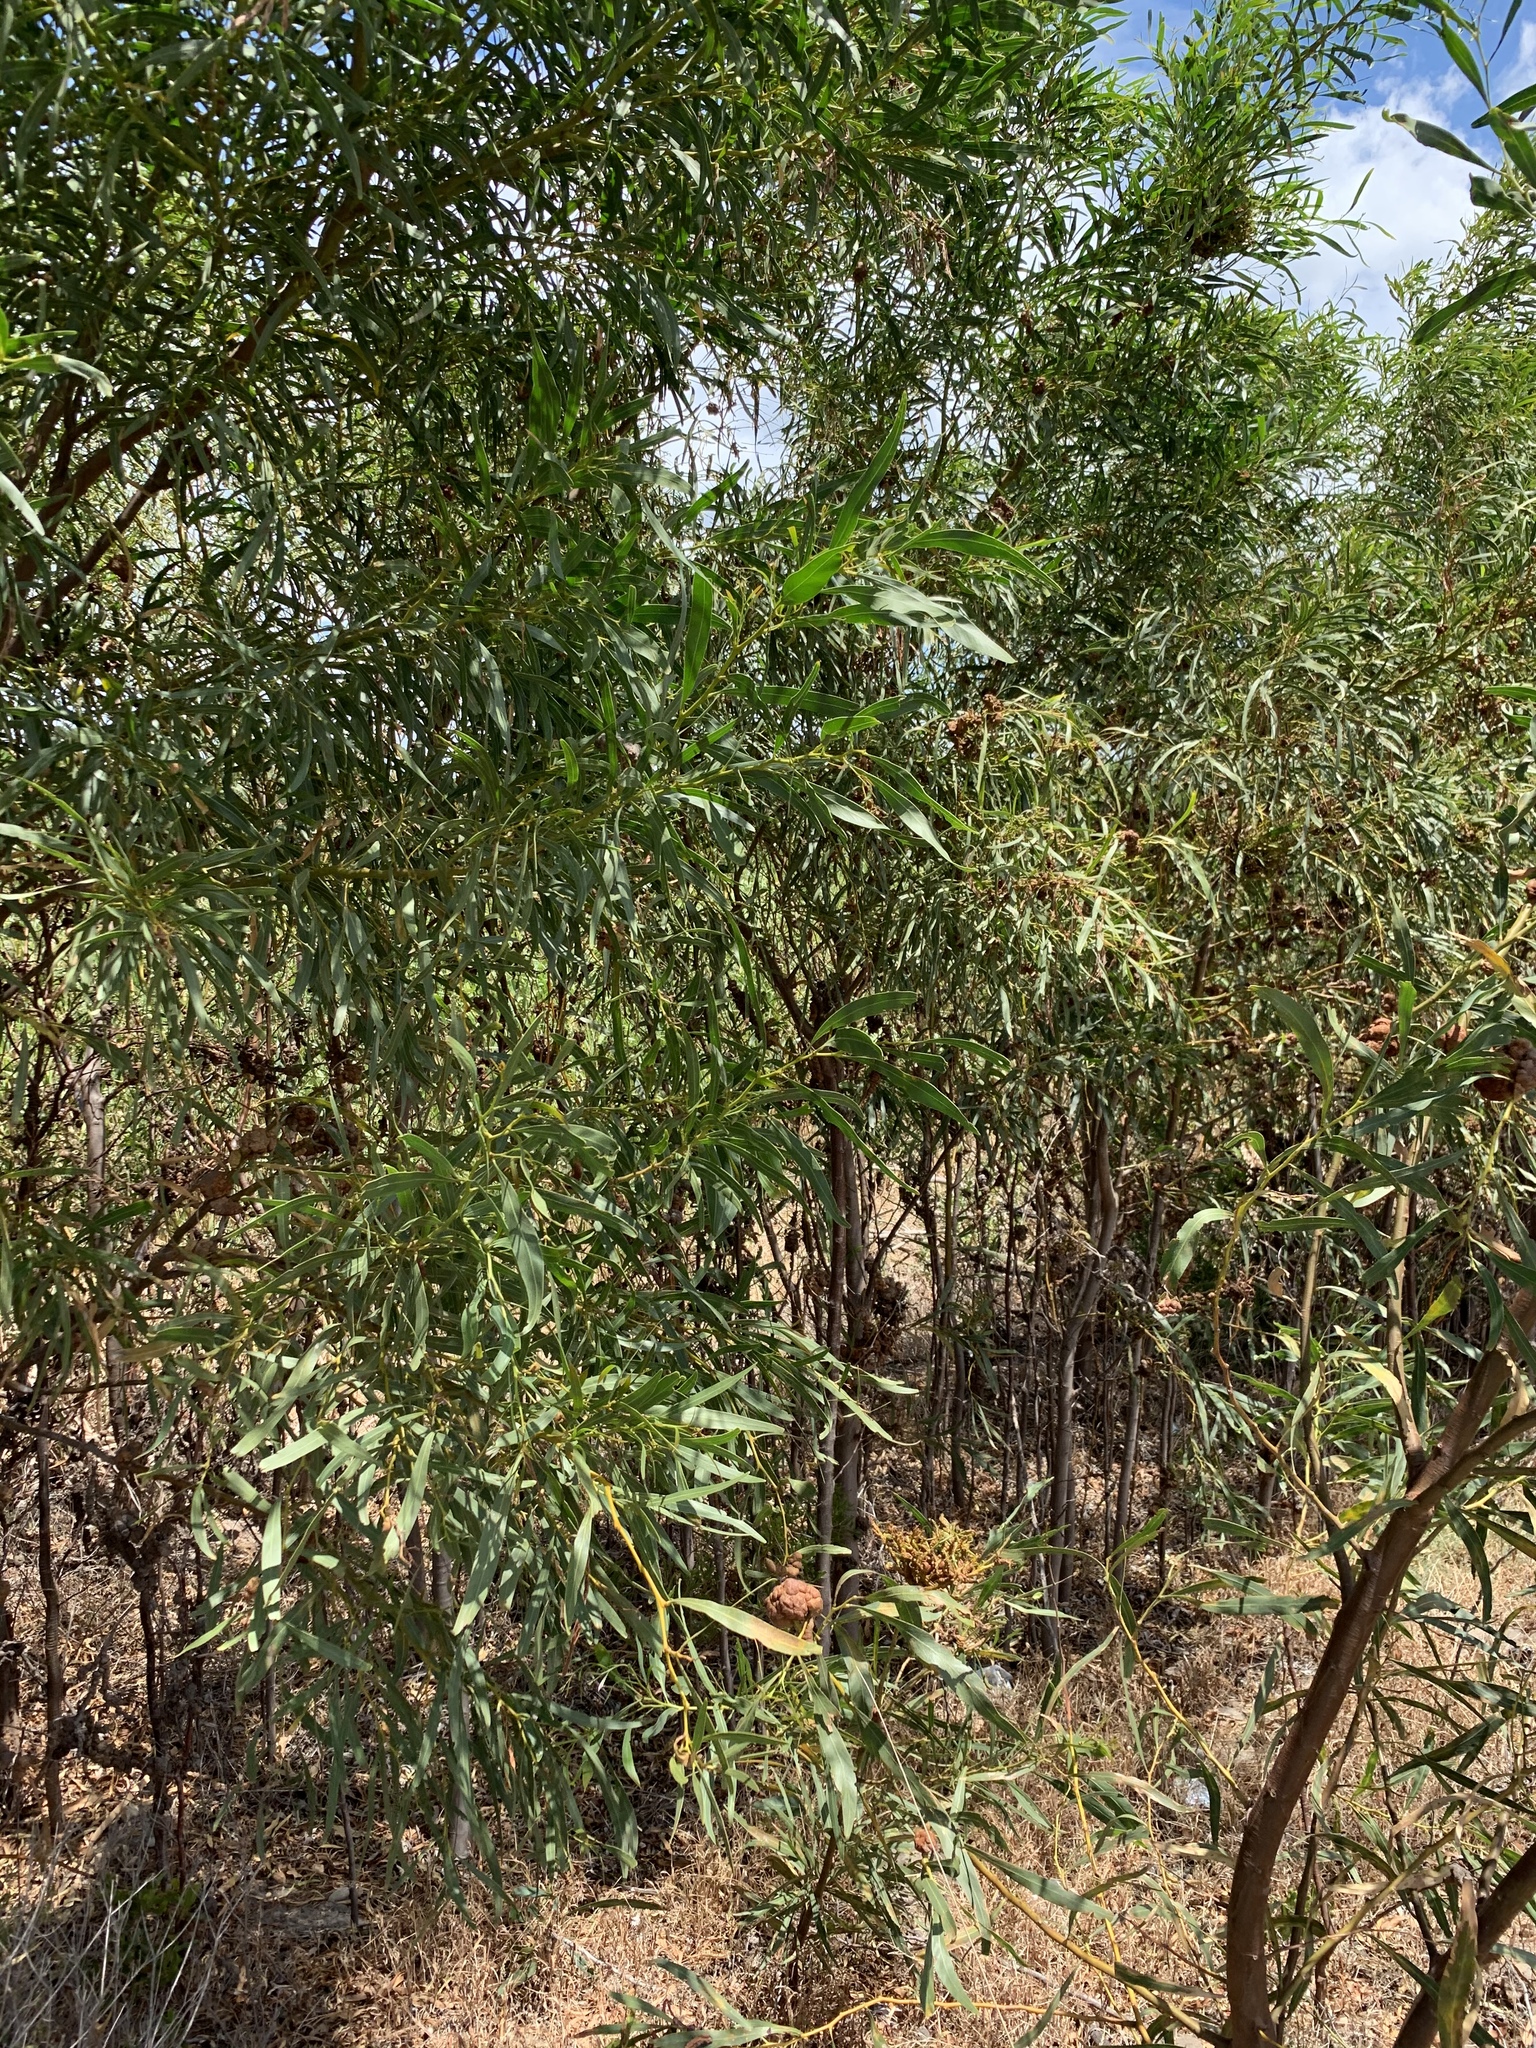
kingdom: Plantae
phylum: Tracheophyta
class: Magnoliopsida
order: Fabales
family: Fabaceae
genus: Acacia
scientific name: Acacia saligna
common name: Orange wattle
